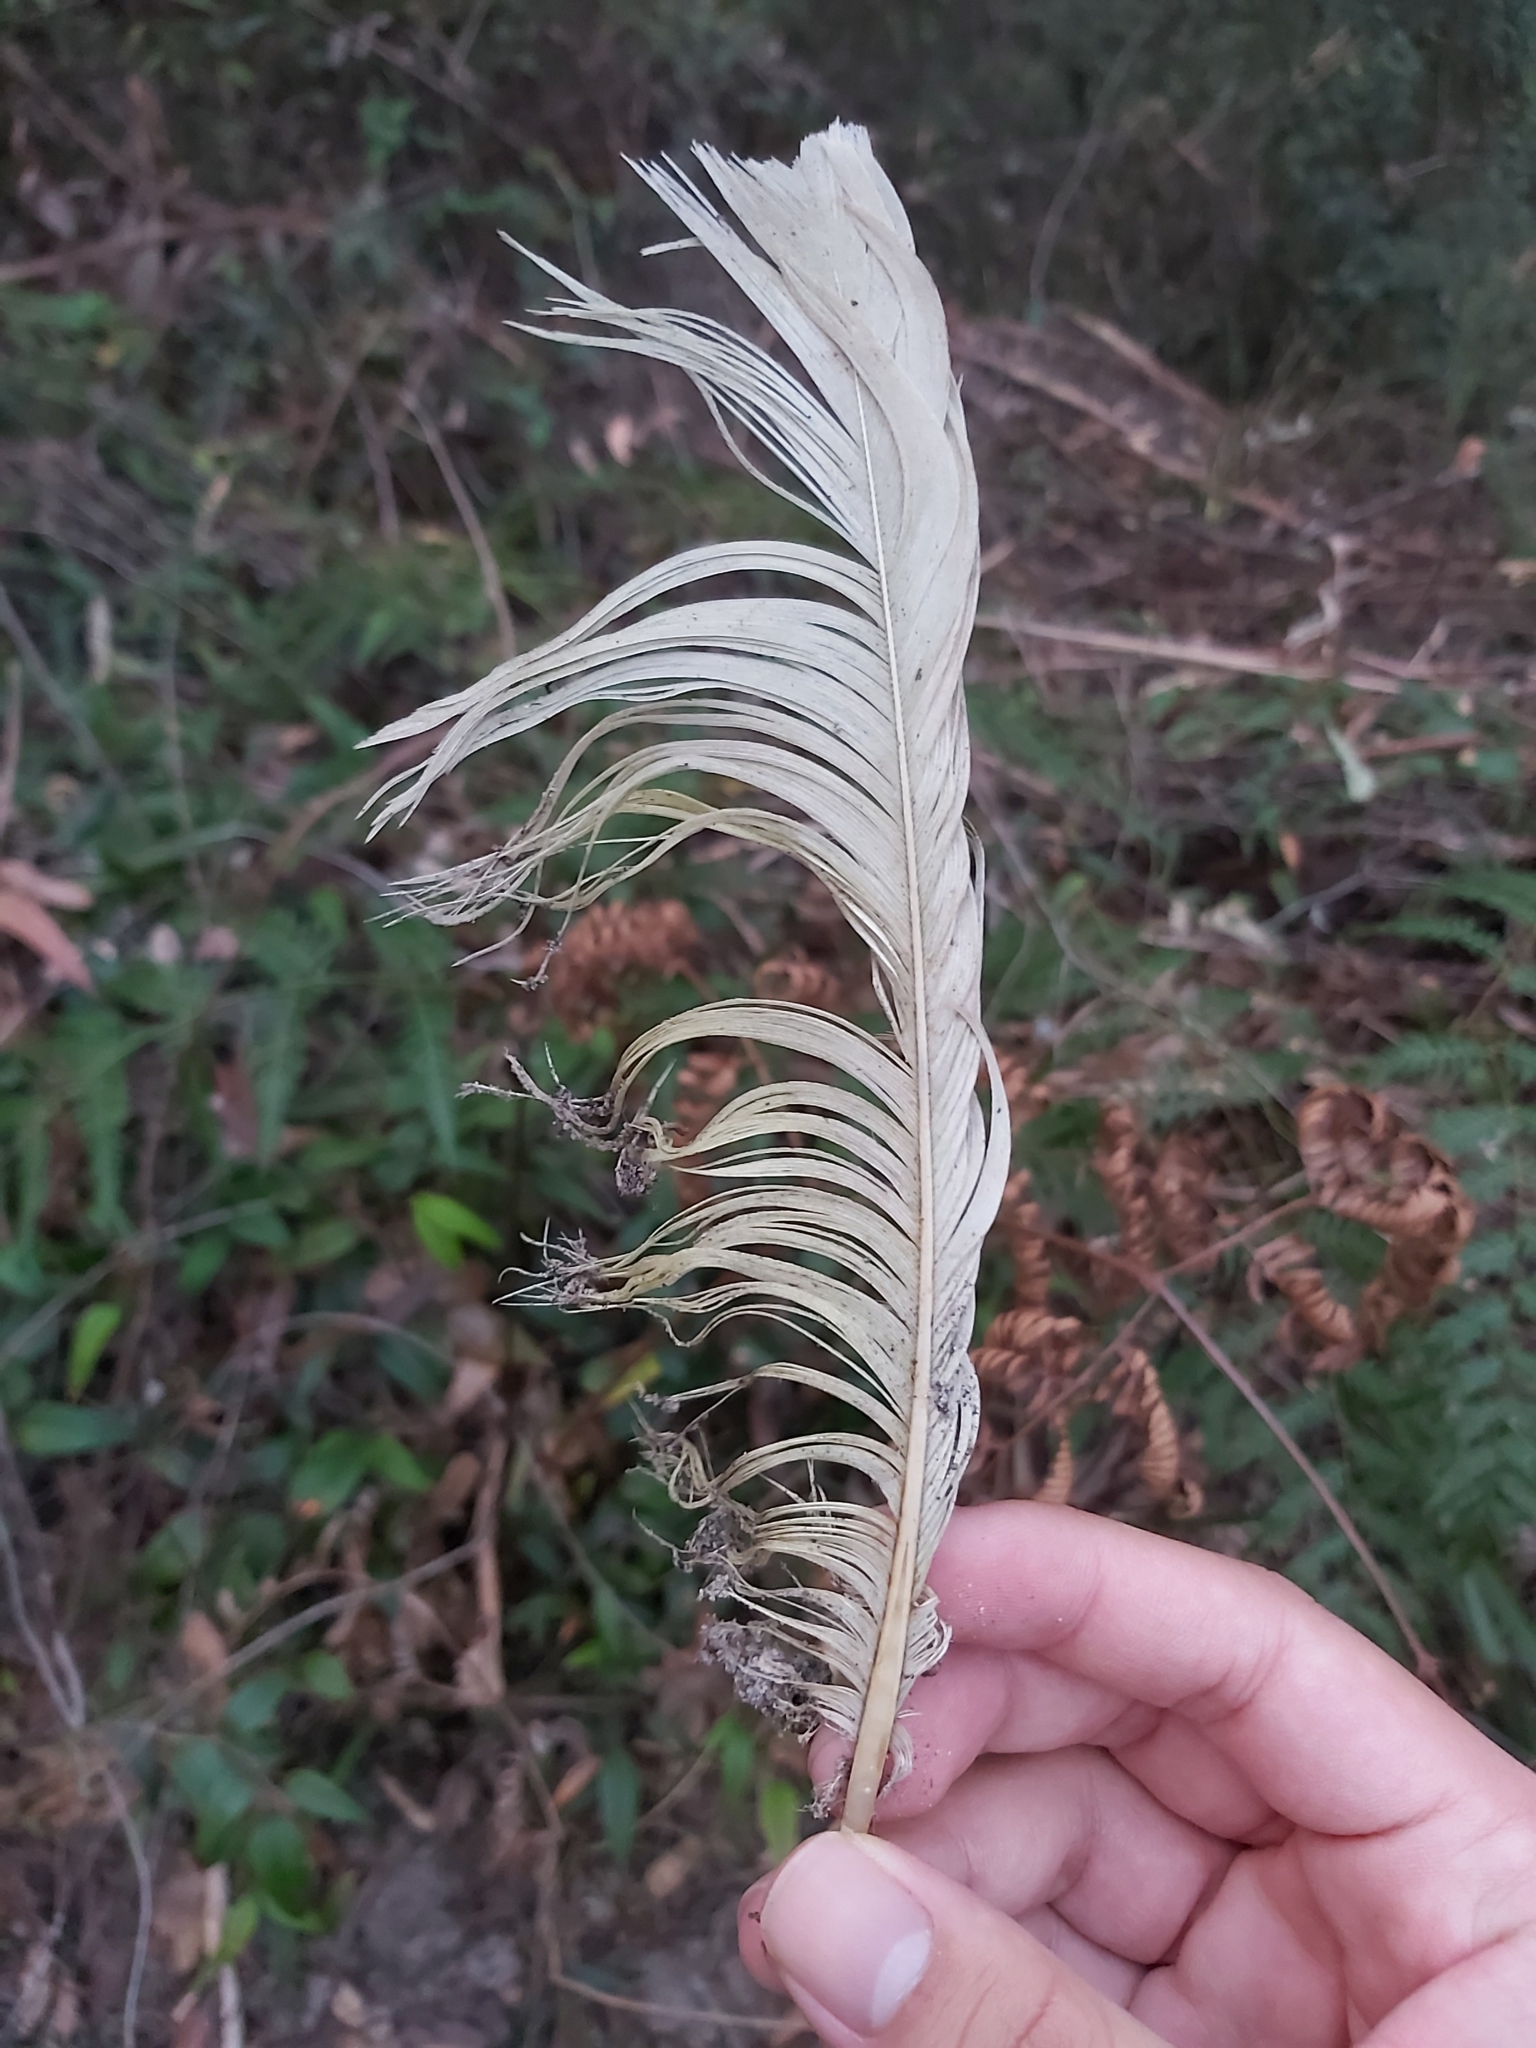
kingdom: Animalia
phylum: Chordata
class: Aves
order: Psittaciformes
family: Psittacidae
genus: Cacatua
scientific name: Cacatua galerita
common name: Sulphur-crested cockatoo
